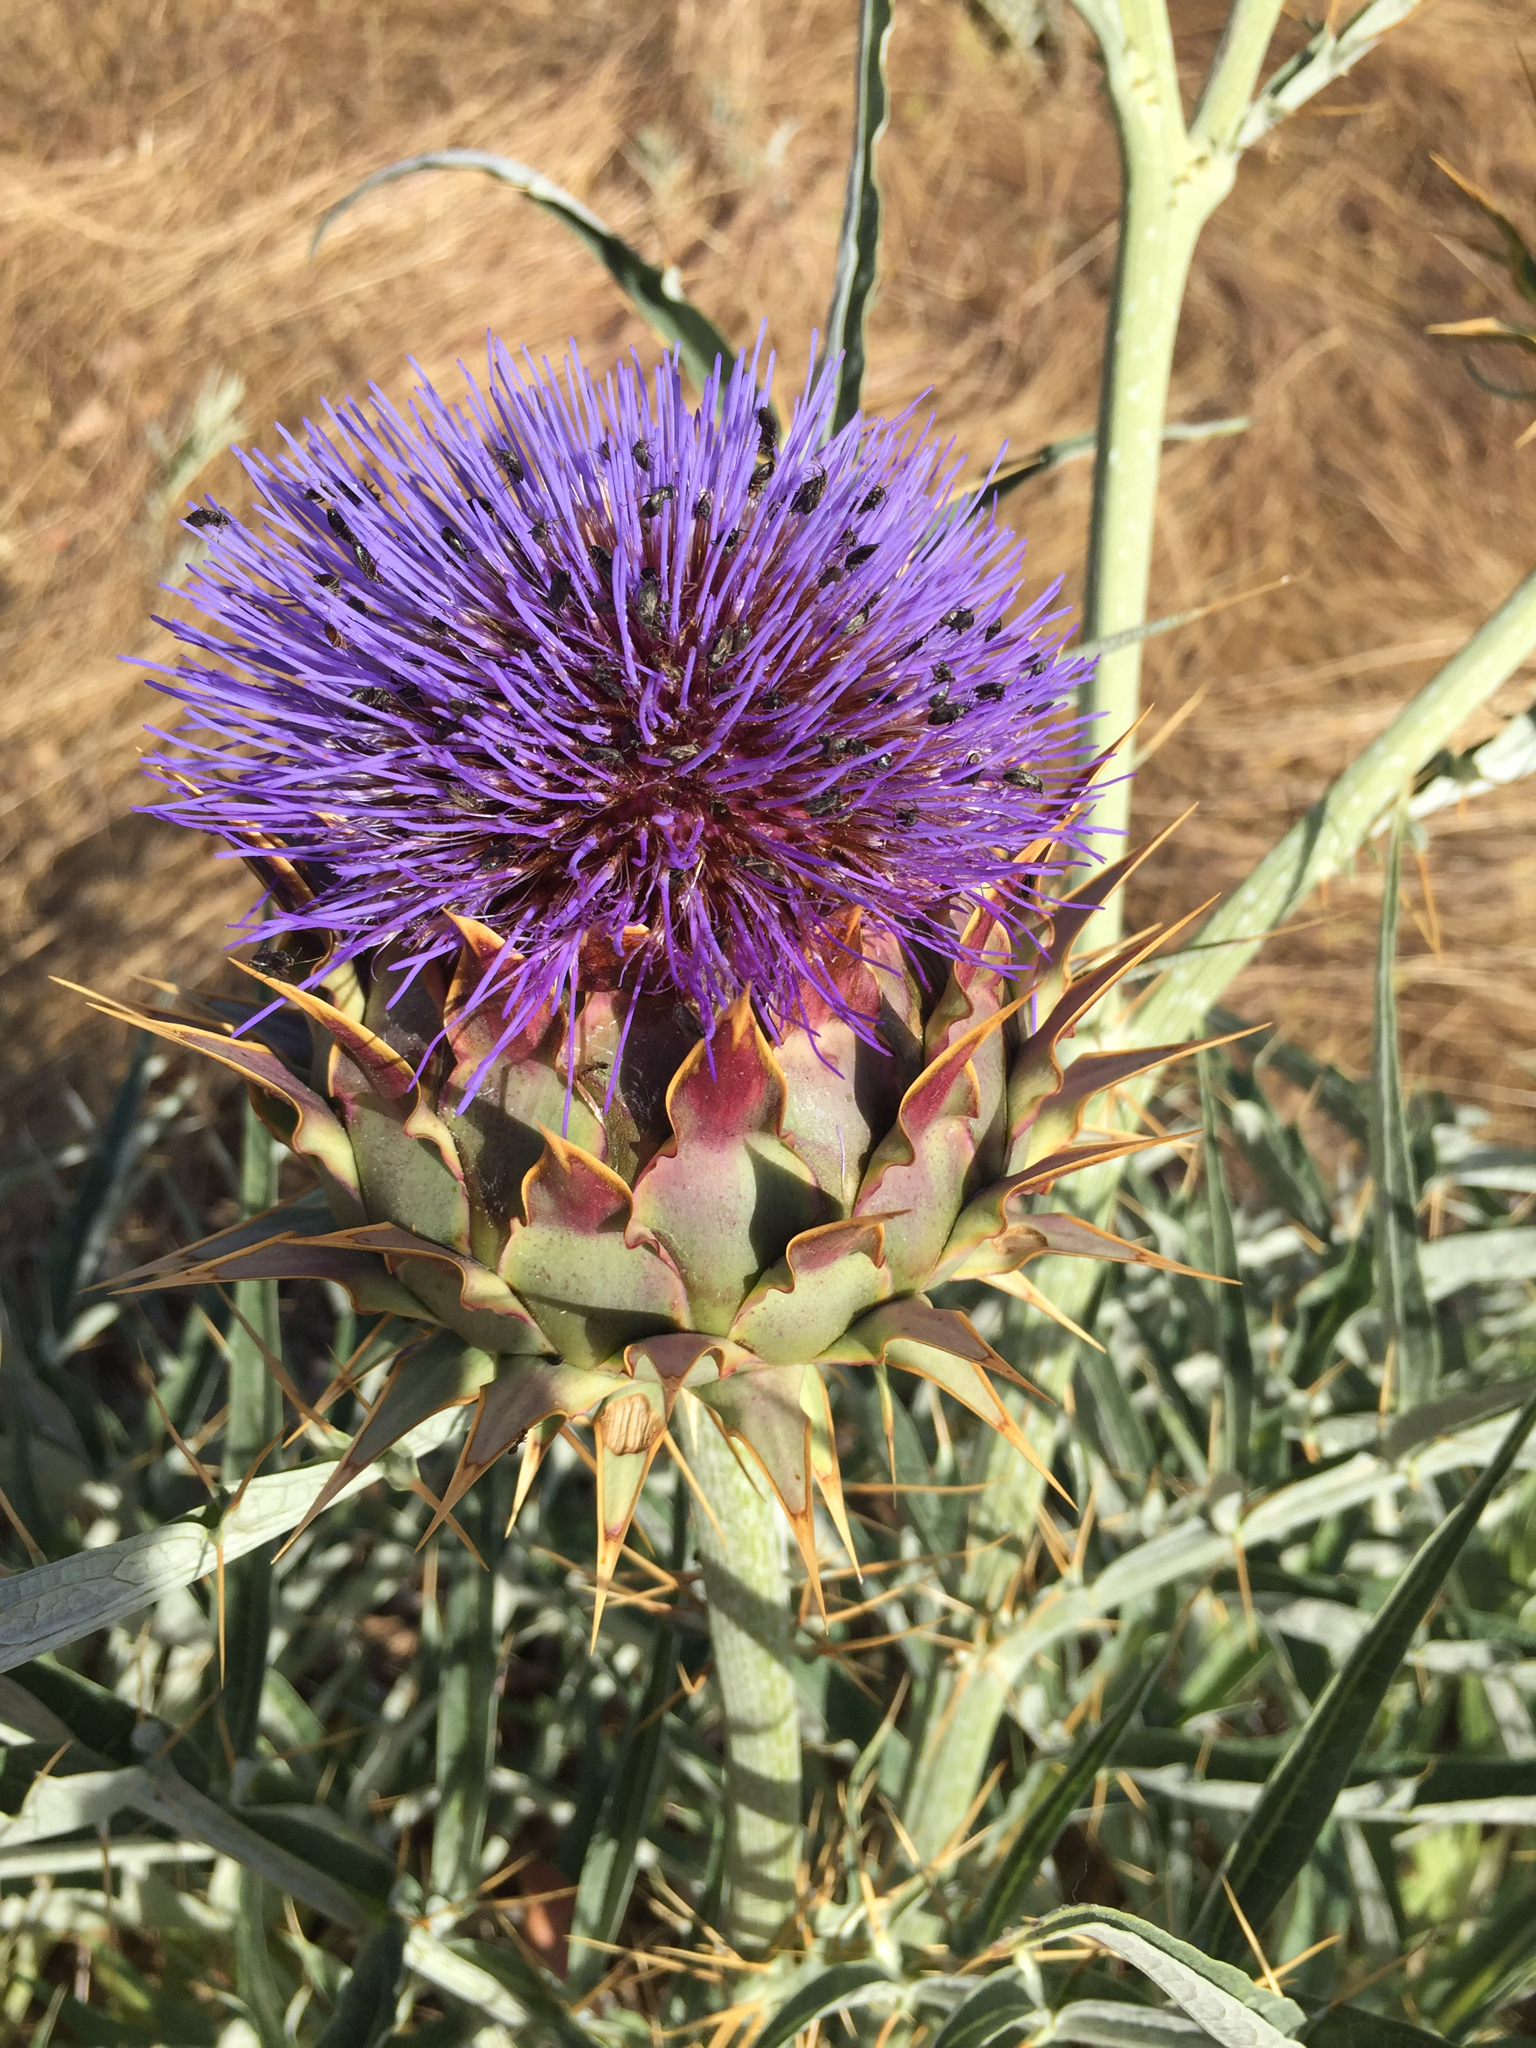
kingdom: Plantae
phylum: Tracheophyta
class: Magnoliopsida
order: Asterales
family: Asteraceae
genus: Cynara
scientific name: Cynara cardunculus
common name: Globe artichoke
